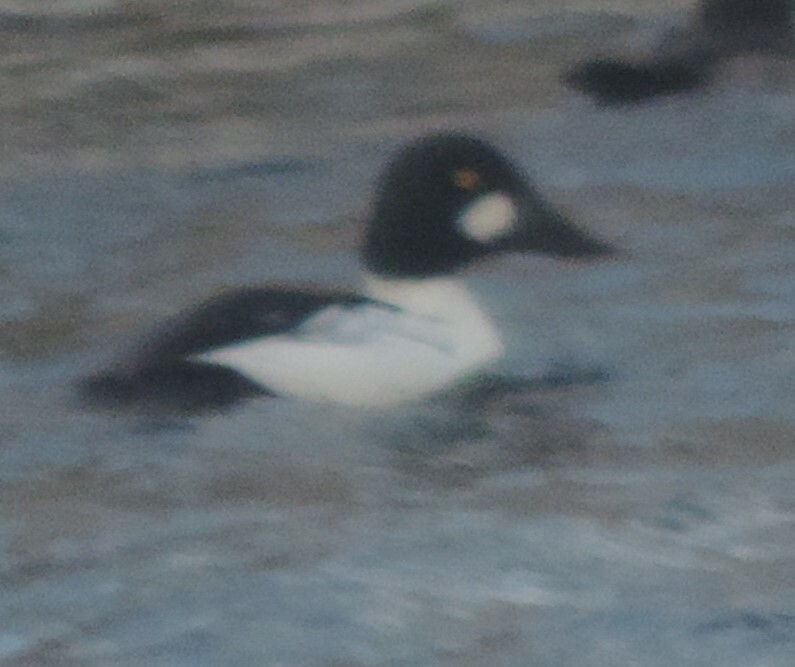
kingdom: Animalia
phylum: Chordata
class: Aves
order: Anseriformes
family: Anatidae
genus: Bucephala
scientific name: Bucephala clangula
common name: Common goldeneye
